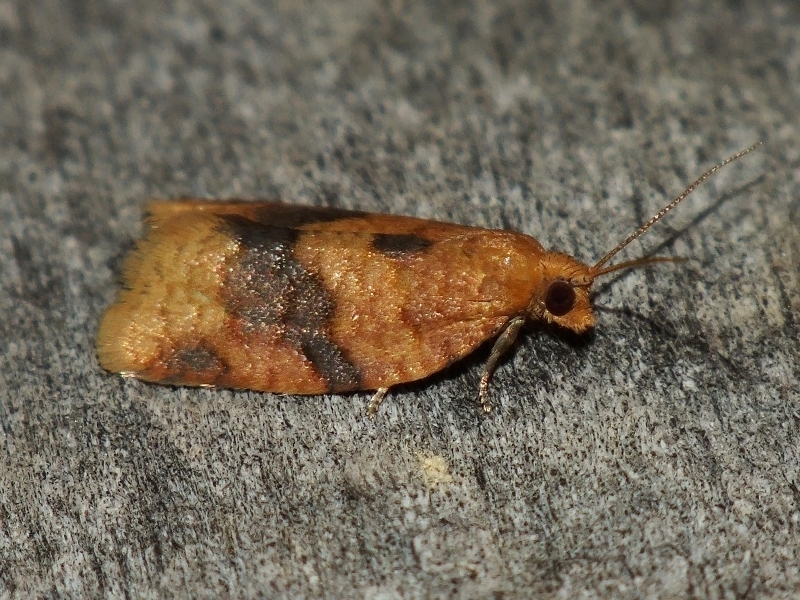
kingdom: Animalia
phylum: Arthropoda
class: Insecta
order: Lepidoptera
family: Tortricidae
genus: Clepsis
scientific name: Clepsis neglectana
